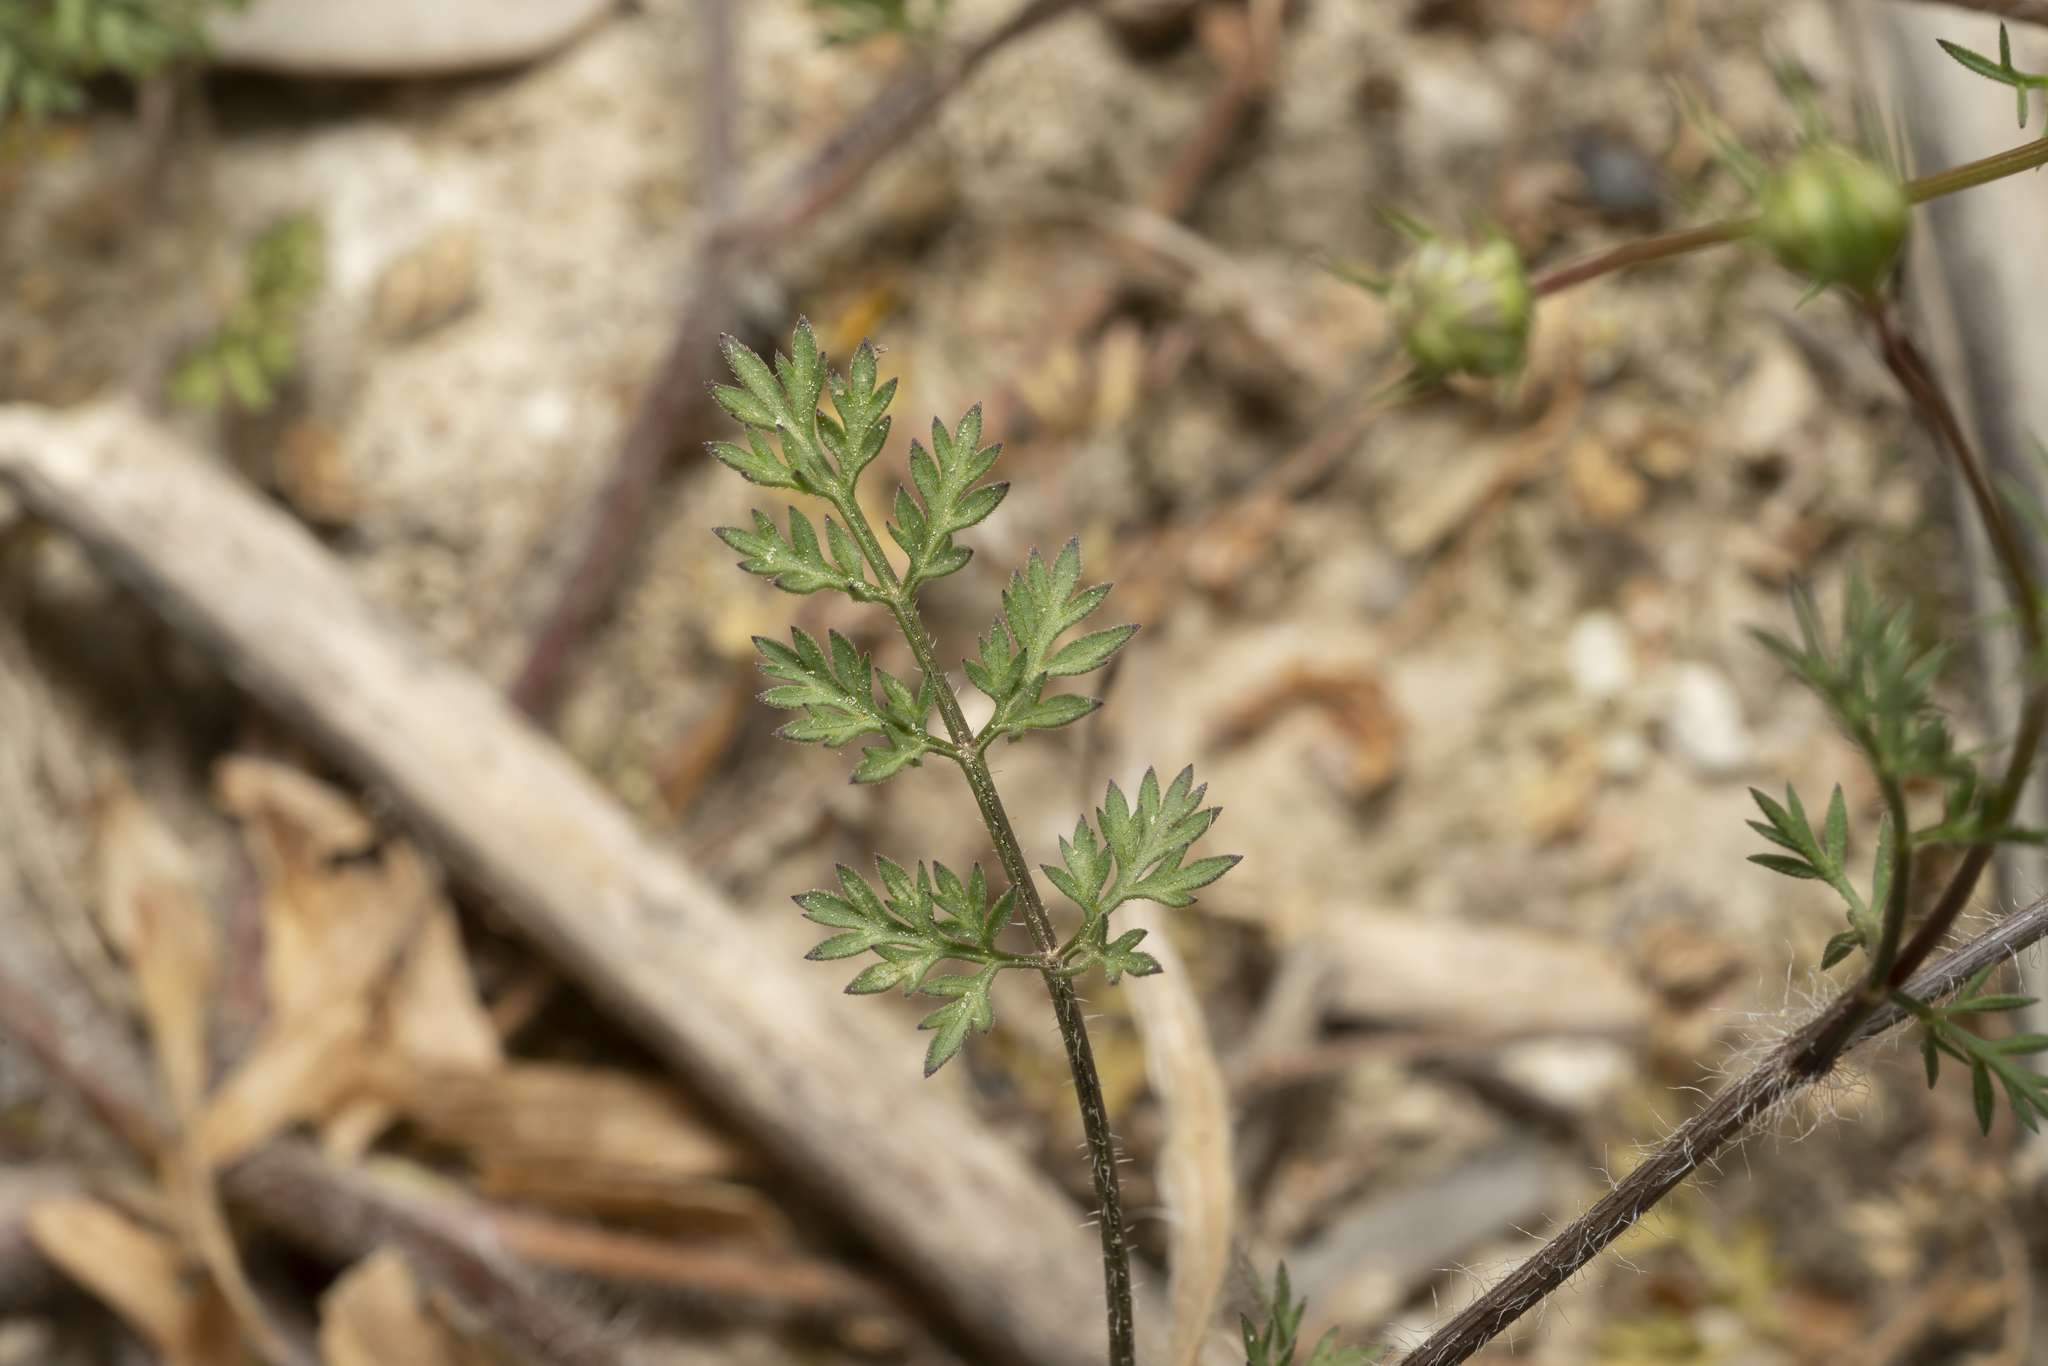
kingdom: Plantae
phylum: Tracheophyta
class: Magnoliopsida
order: Apiales
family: Apiaceae
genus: Daucus
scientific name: Daucus broteroi
